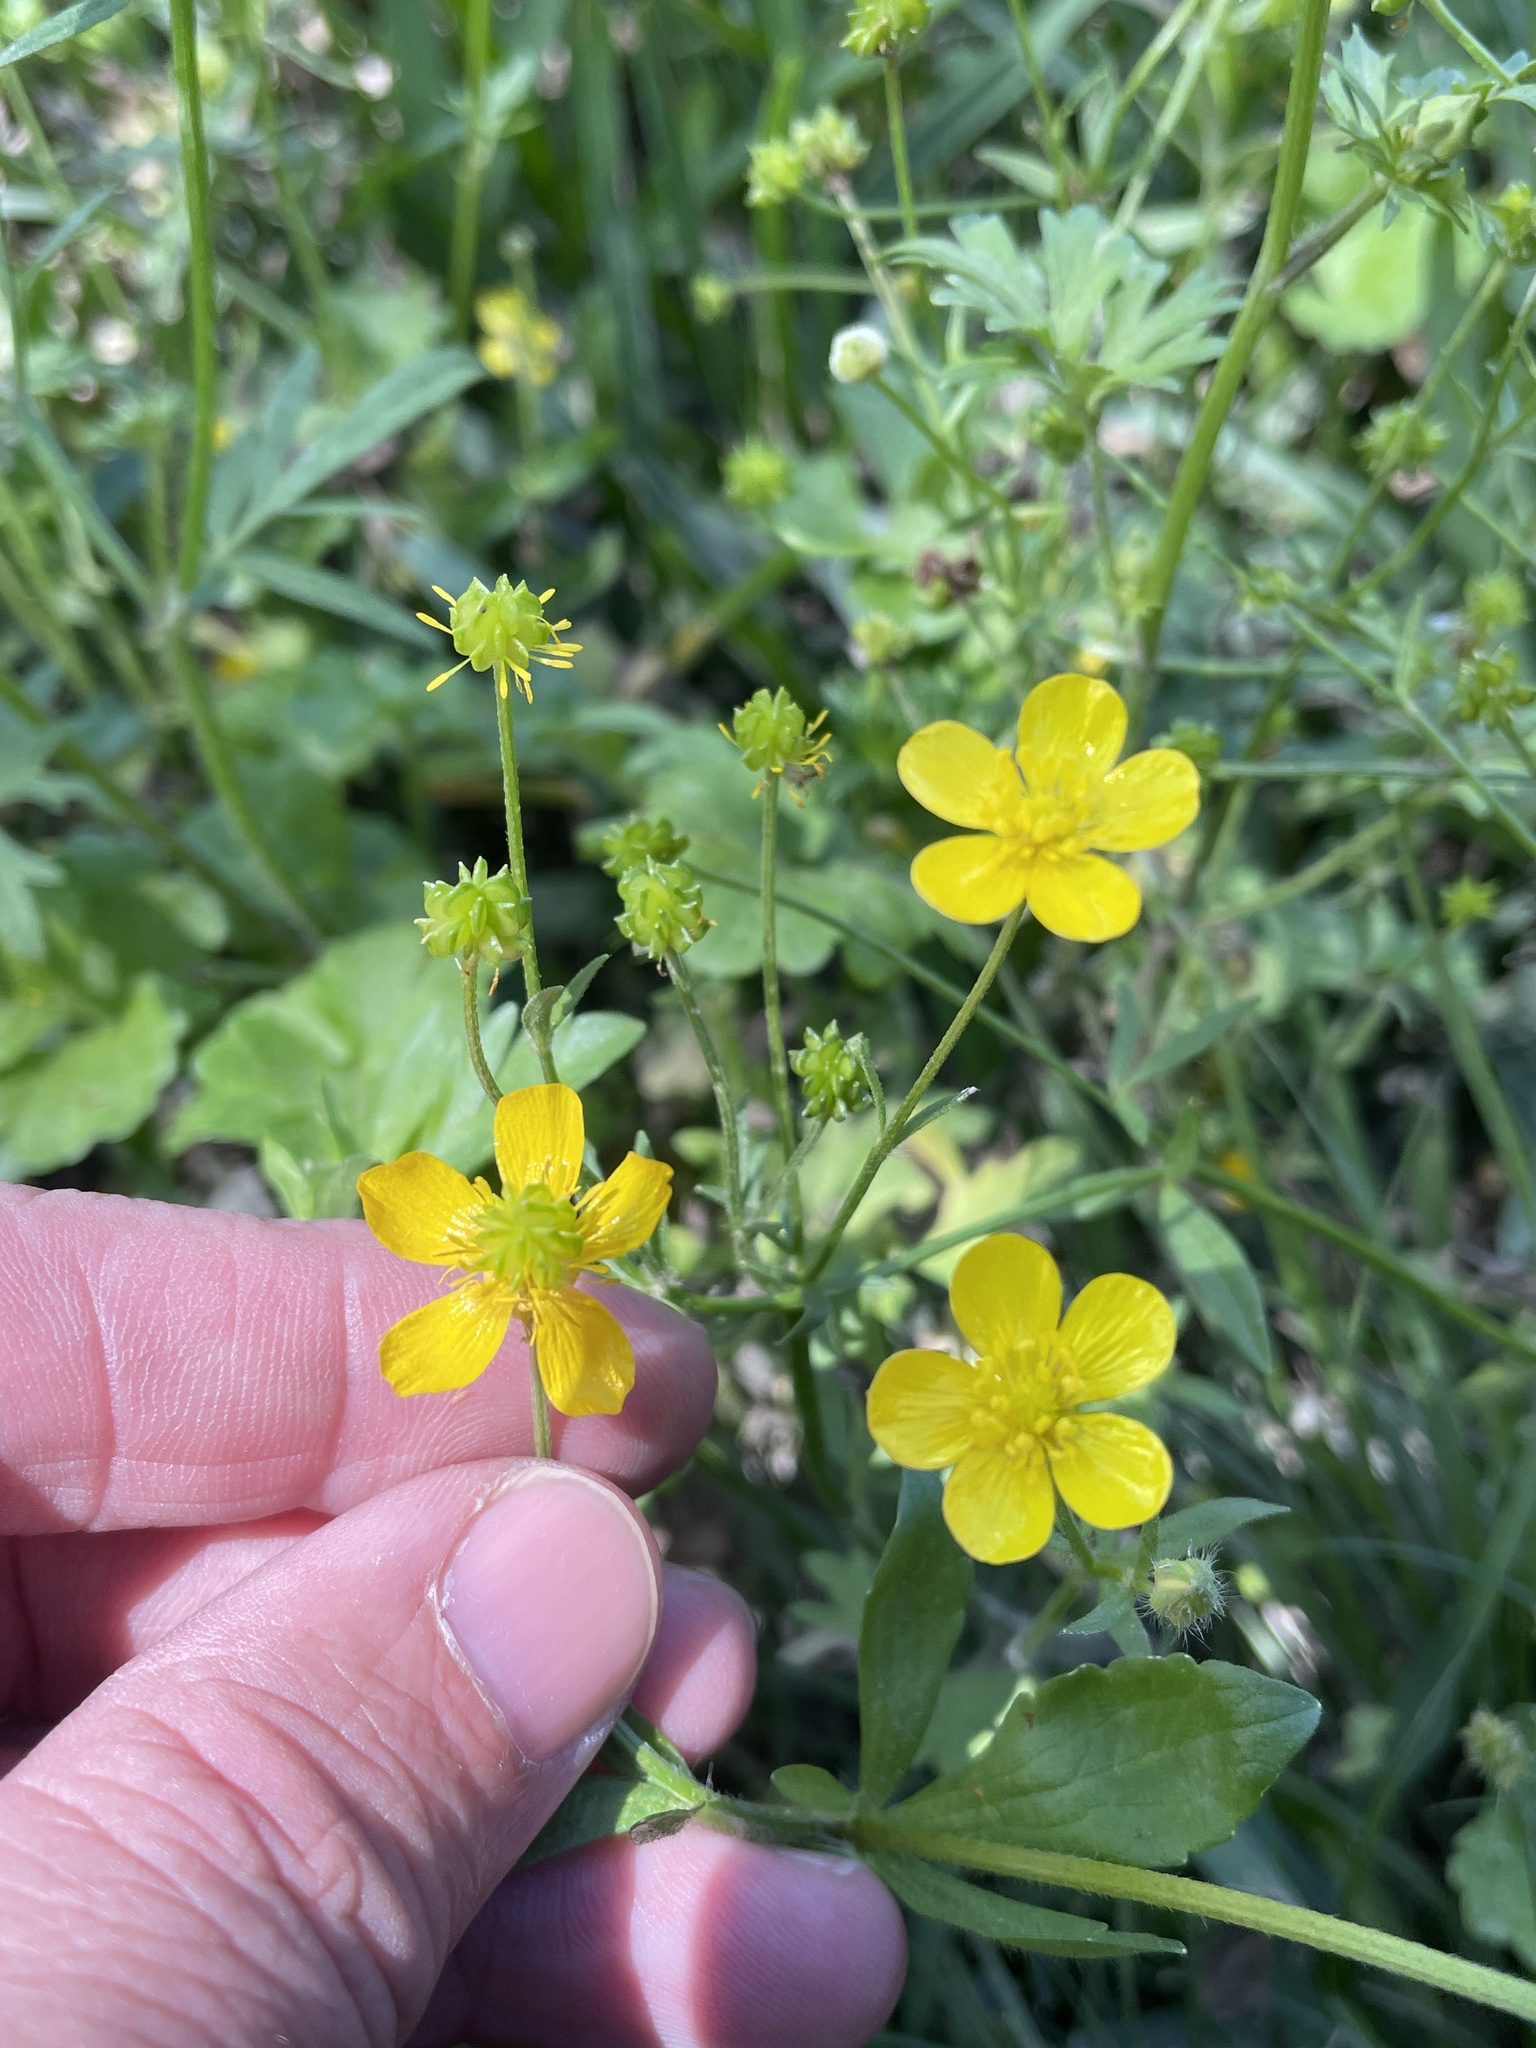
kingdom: Plantae
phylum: Tracheophyta
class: Magnoliopsida
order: Ranunculales
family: Ranunculaceae
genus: Ranunculus
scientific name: Ranunculus fascicularis
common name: Early buttercup
